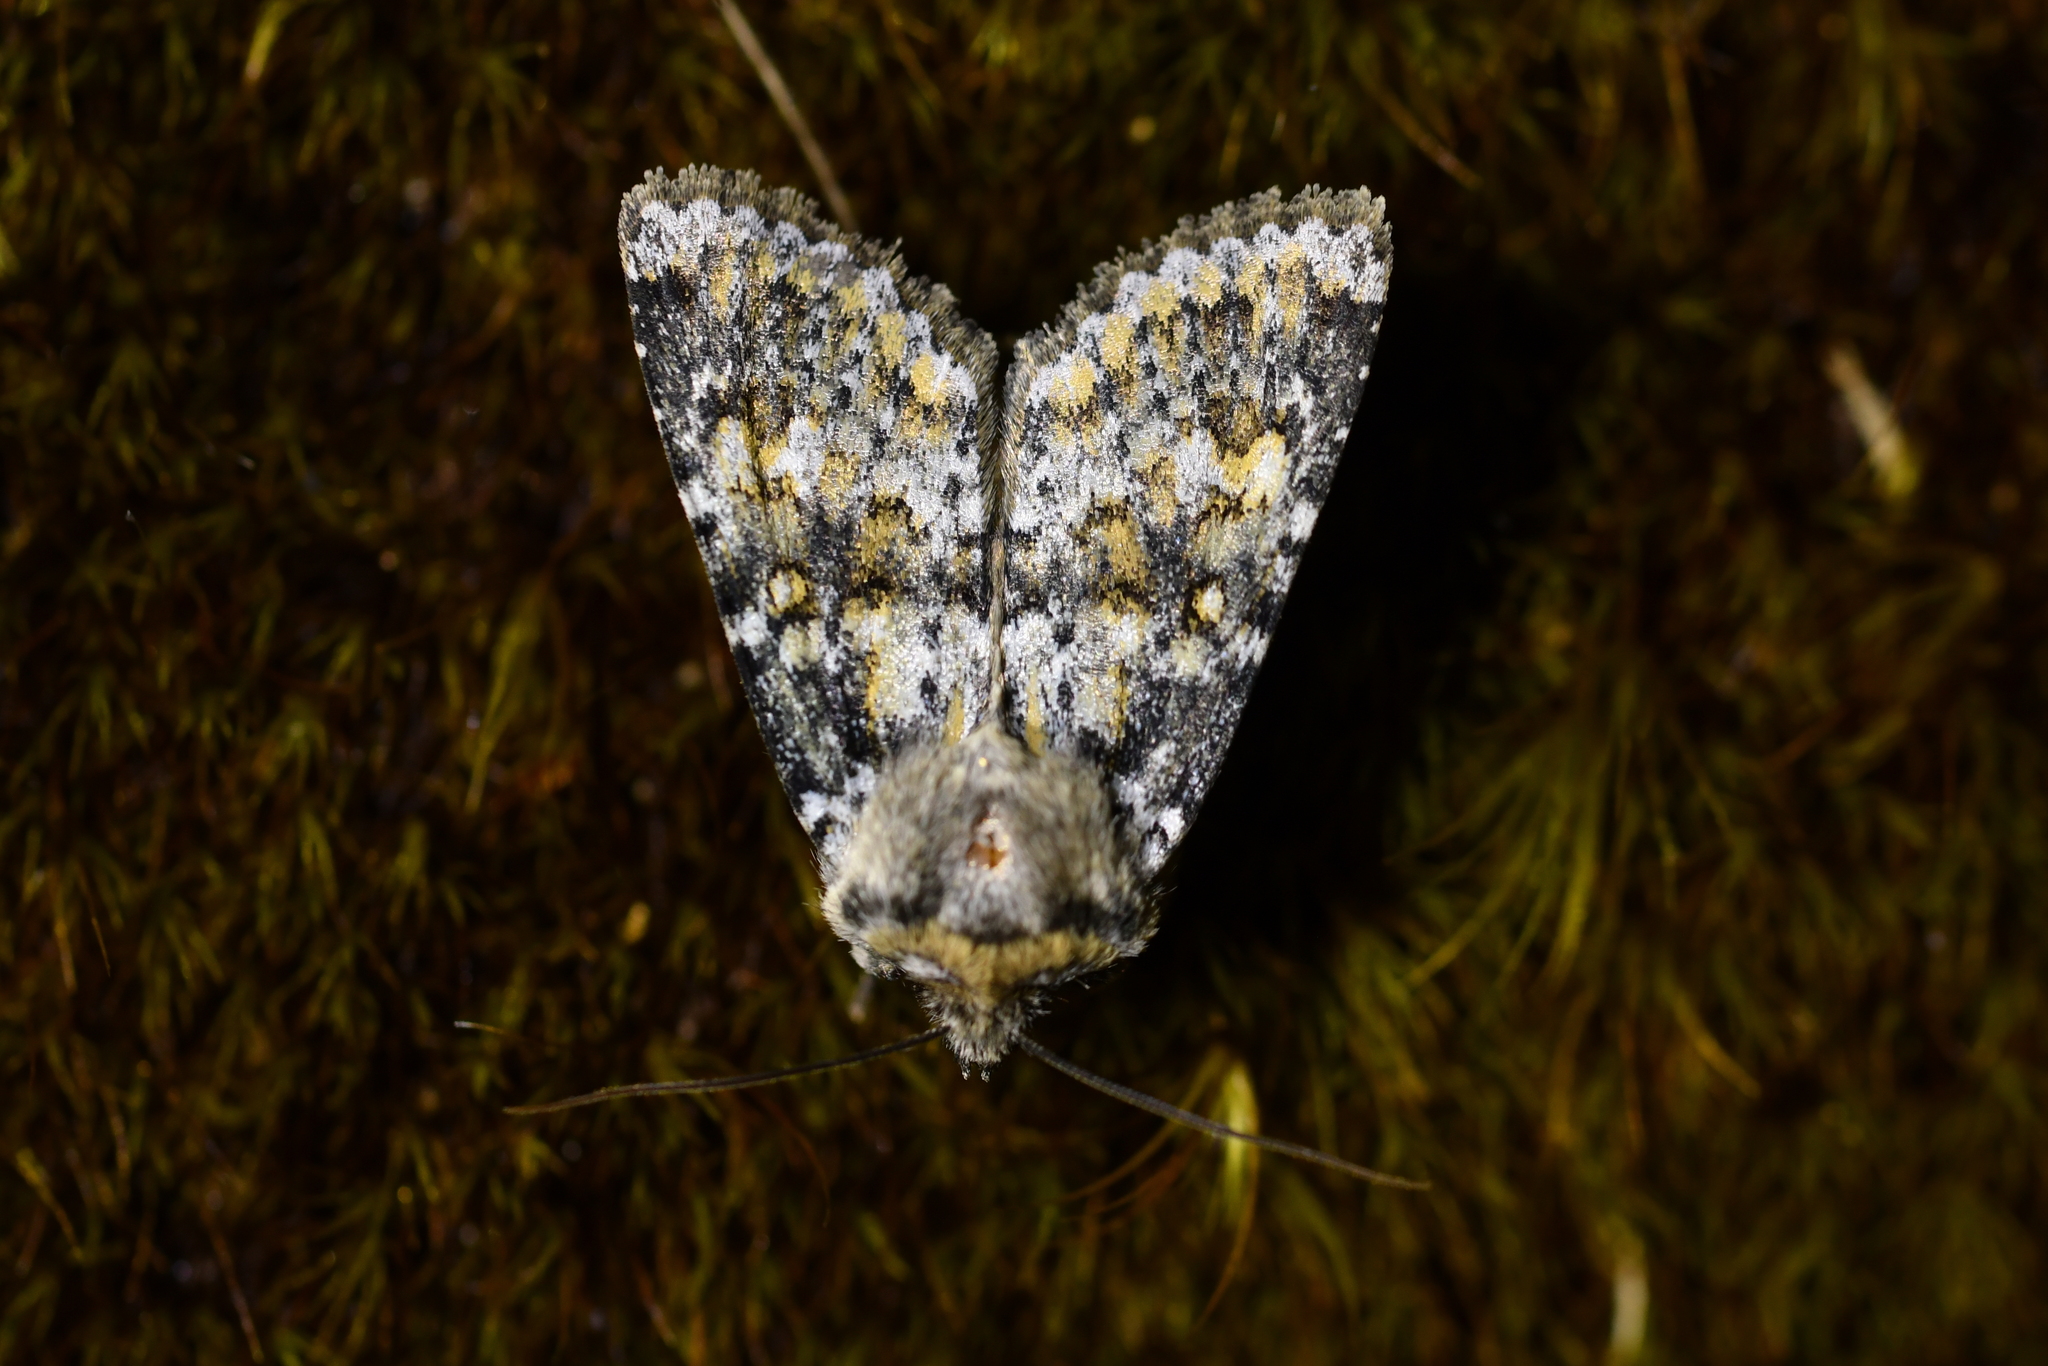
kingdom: Animalia
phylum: Arthropoda
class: Insecta
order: Lepidoptera
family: Noctuidae
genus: Ichneutica
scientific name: Ichneutica
